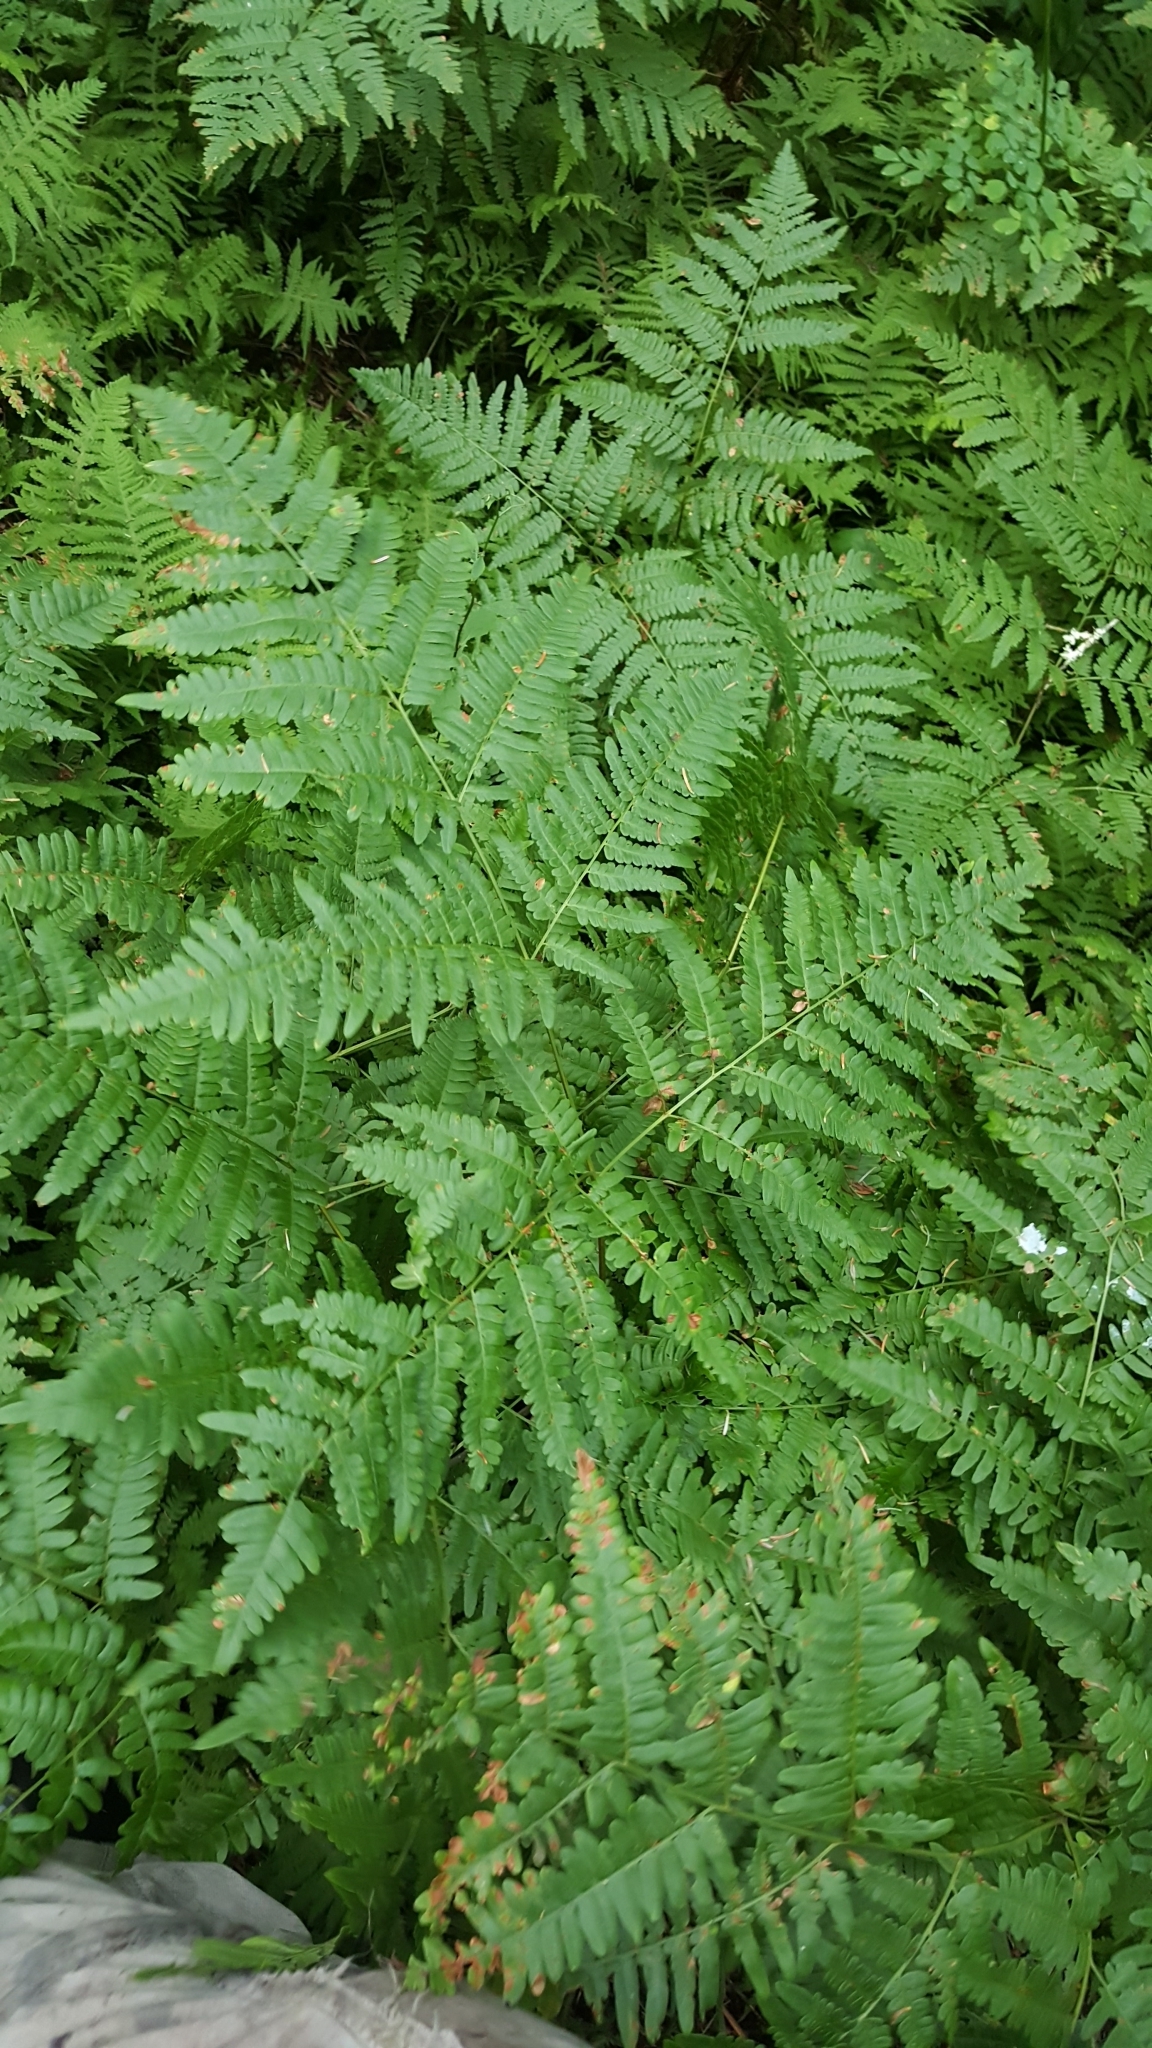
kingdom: Plantae
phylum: Tracheophyta
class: Polypodiopsida
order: Polypodiales
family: Dennstaedtiaceae
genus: Pteridium
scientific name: Pteridium aquilinum
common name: Bracken
